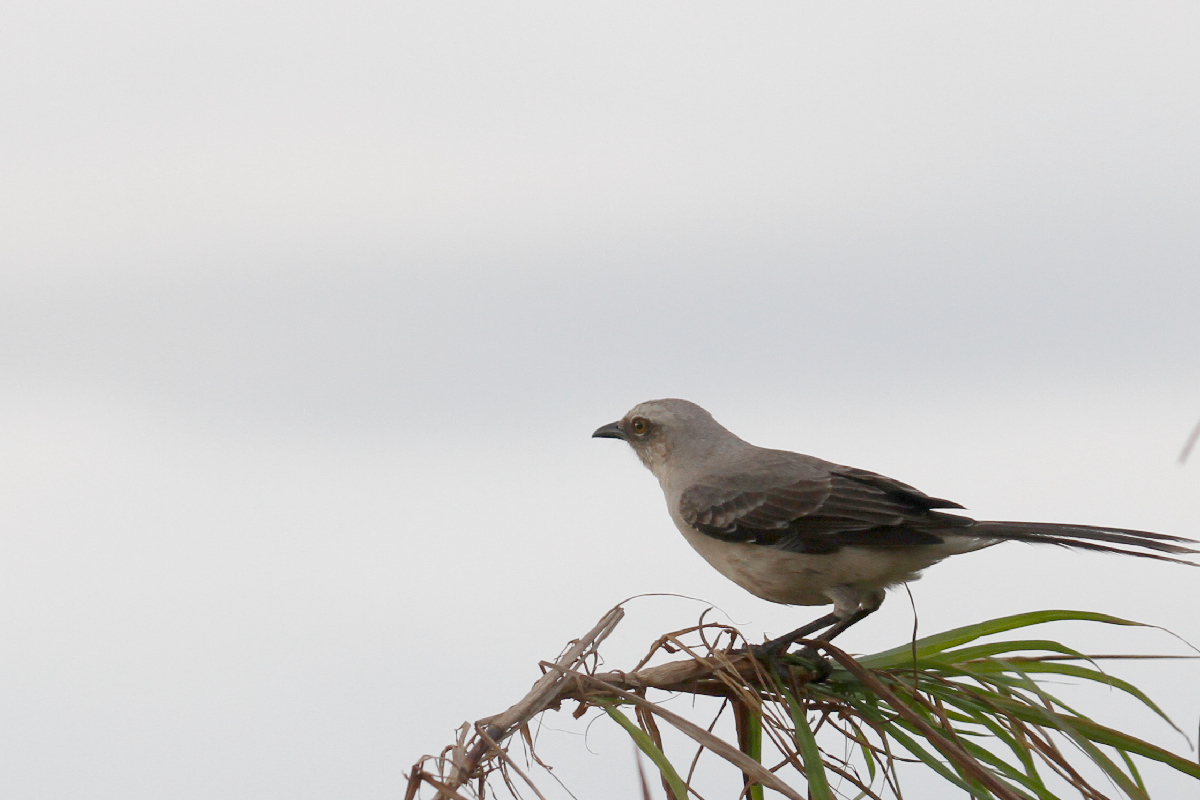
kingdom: Animalia
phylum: Chordata
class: Aves
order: Passeriformes
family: Mimidae
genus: Mimus
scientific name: Mimus gilvus
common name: Tropical mockingbird
